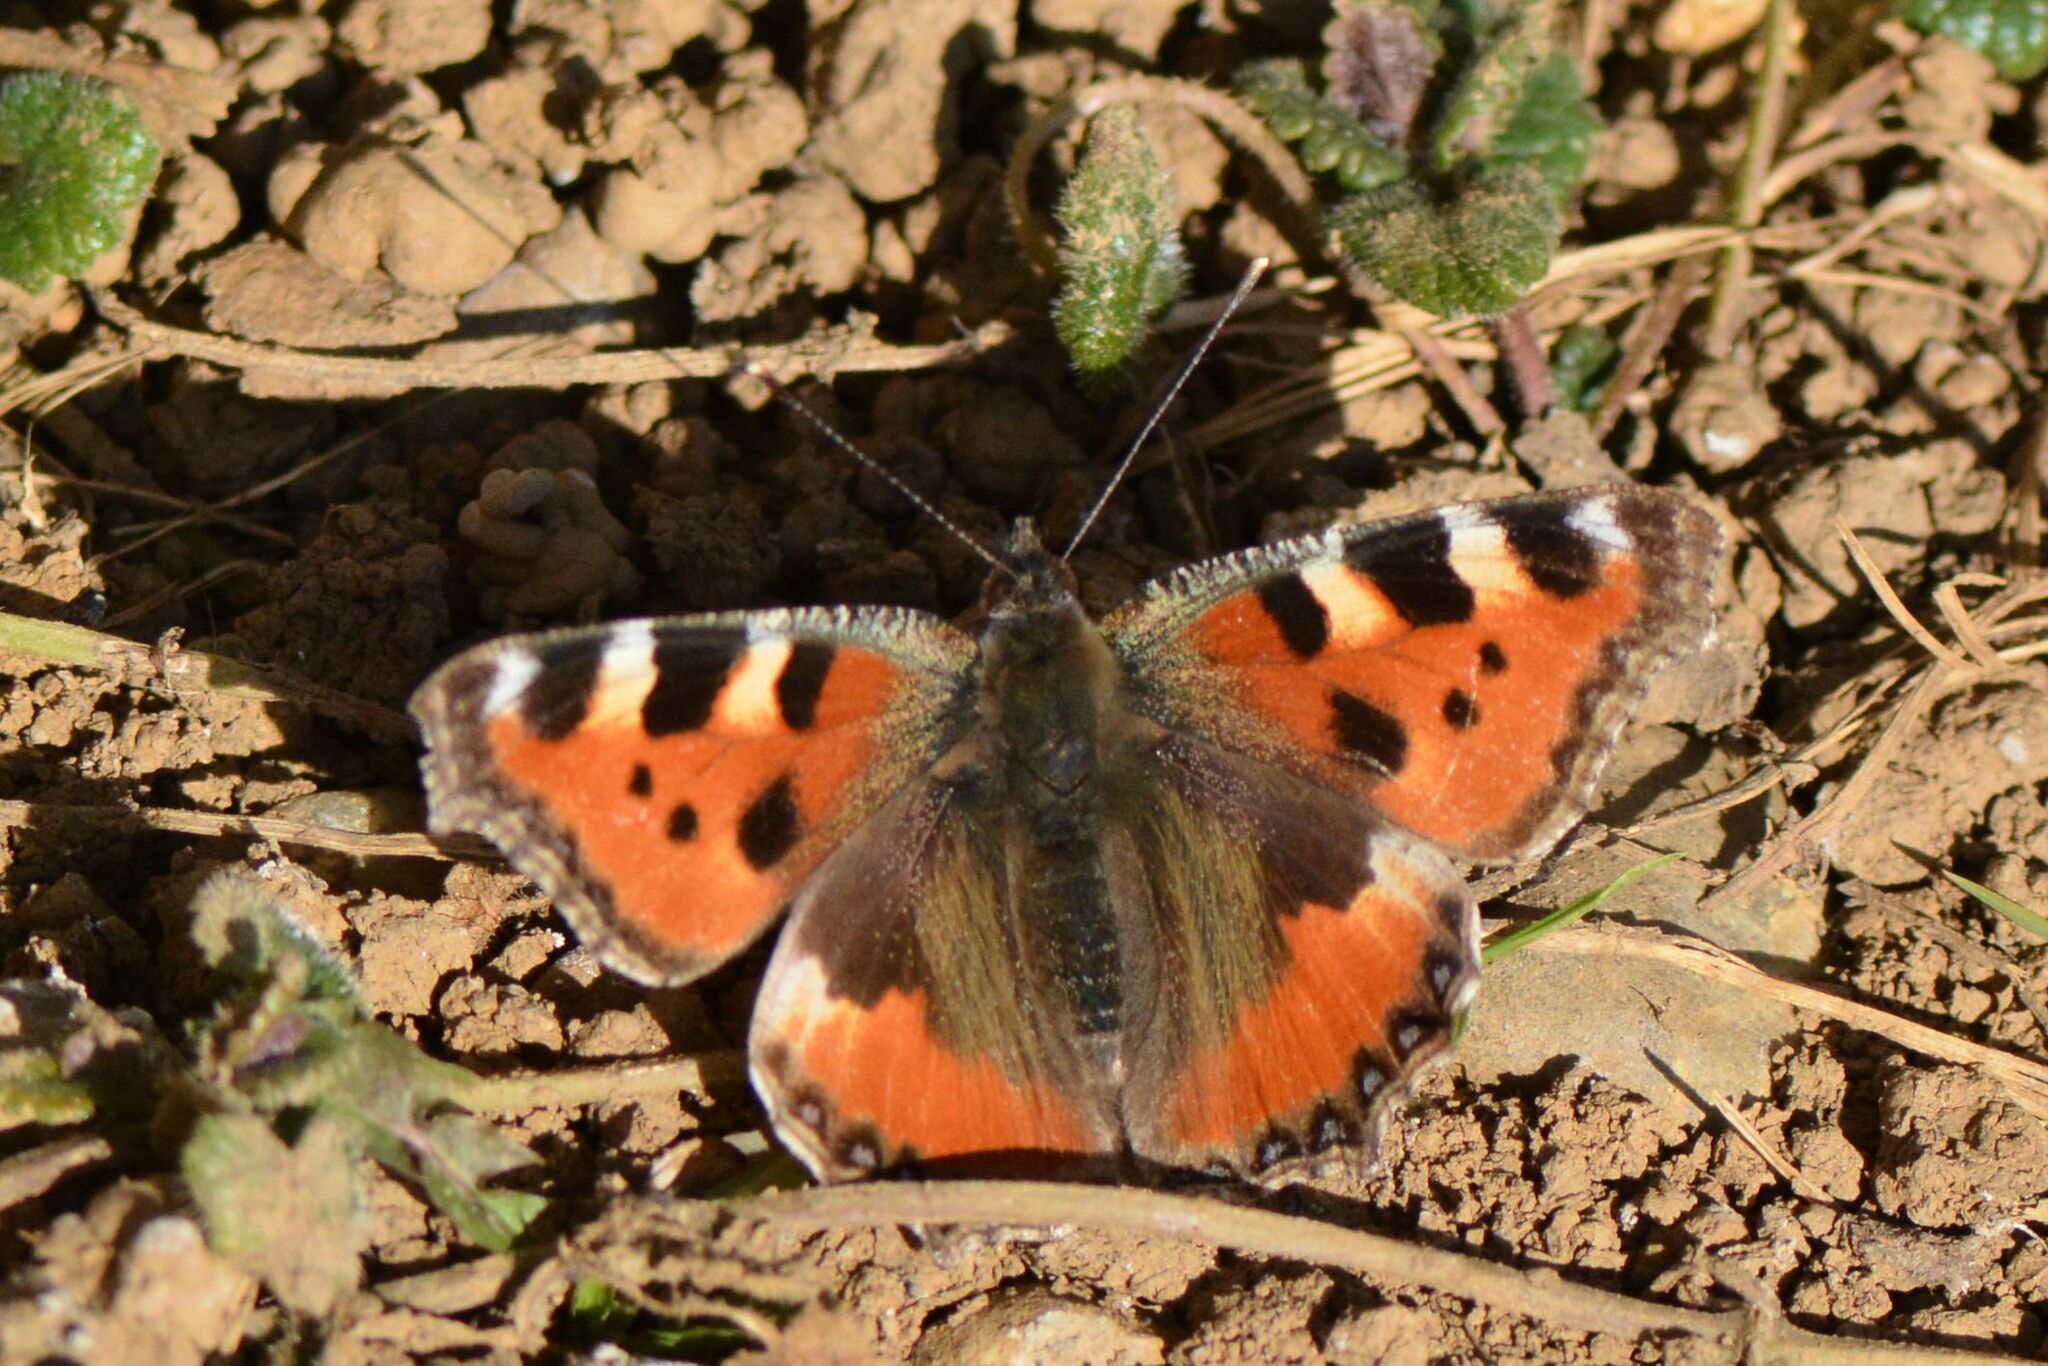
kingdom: Animalia
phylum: Arthropoda
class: Insecta
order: Lepidoptera
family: Nymphalidae
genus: Aglais
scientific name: Aglais urticae
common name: Small tortoiseshell
